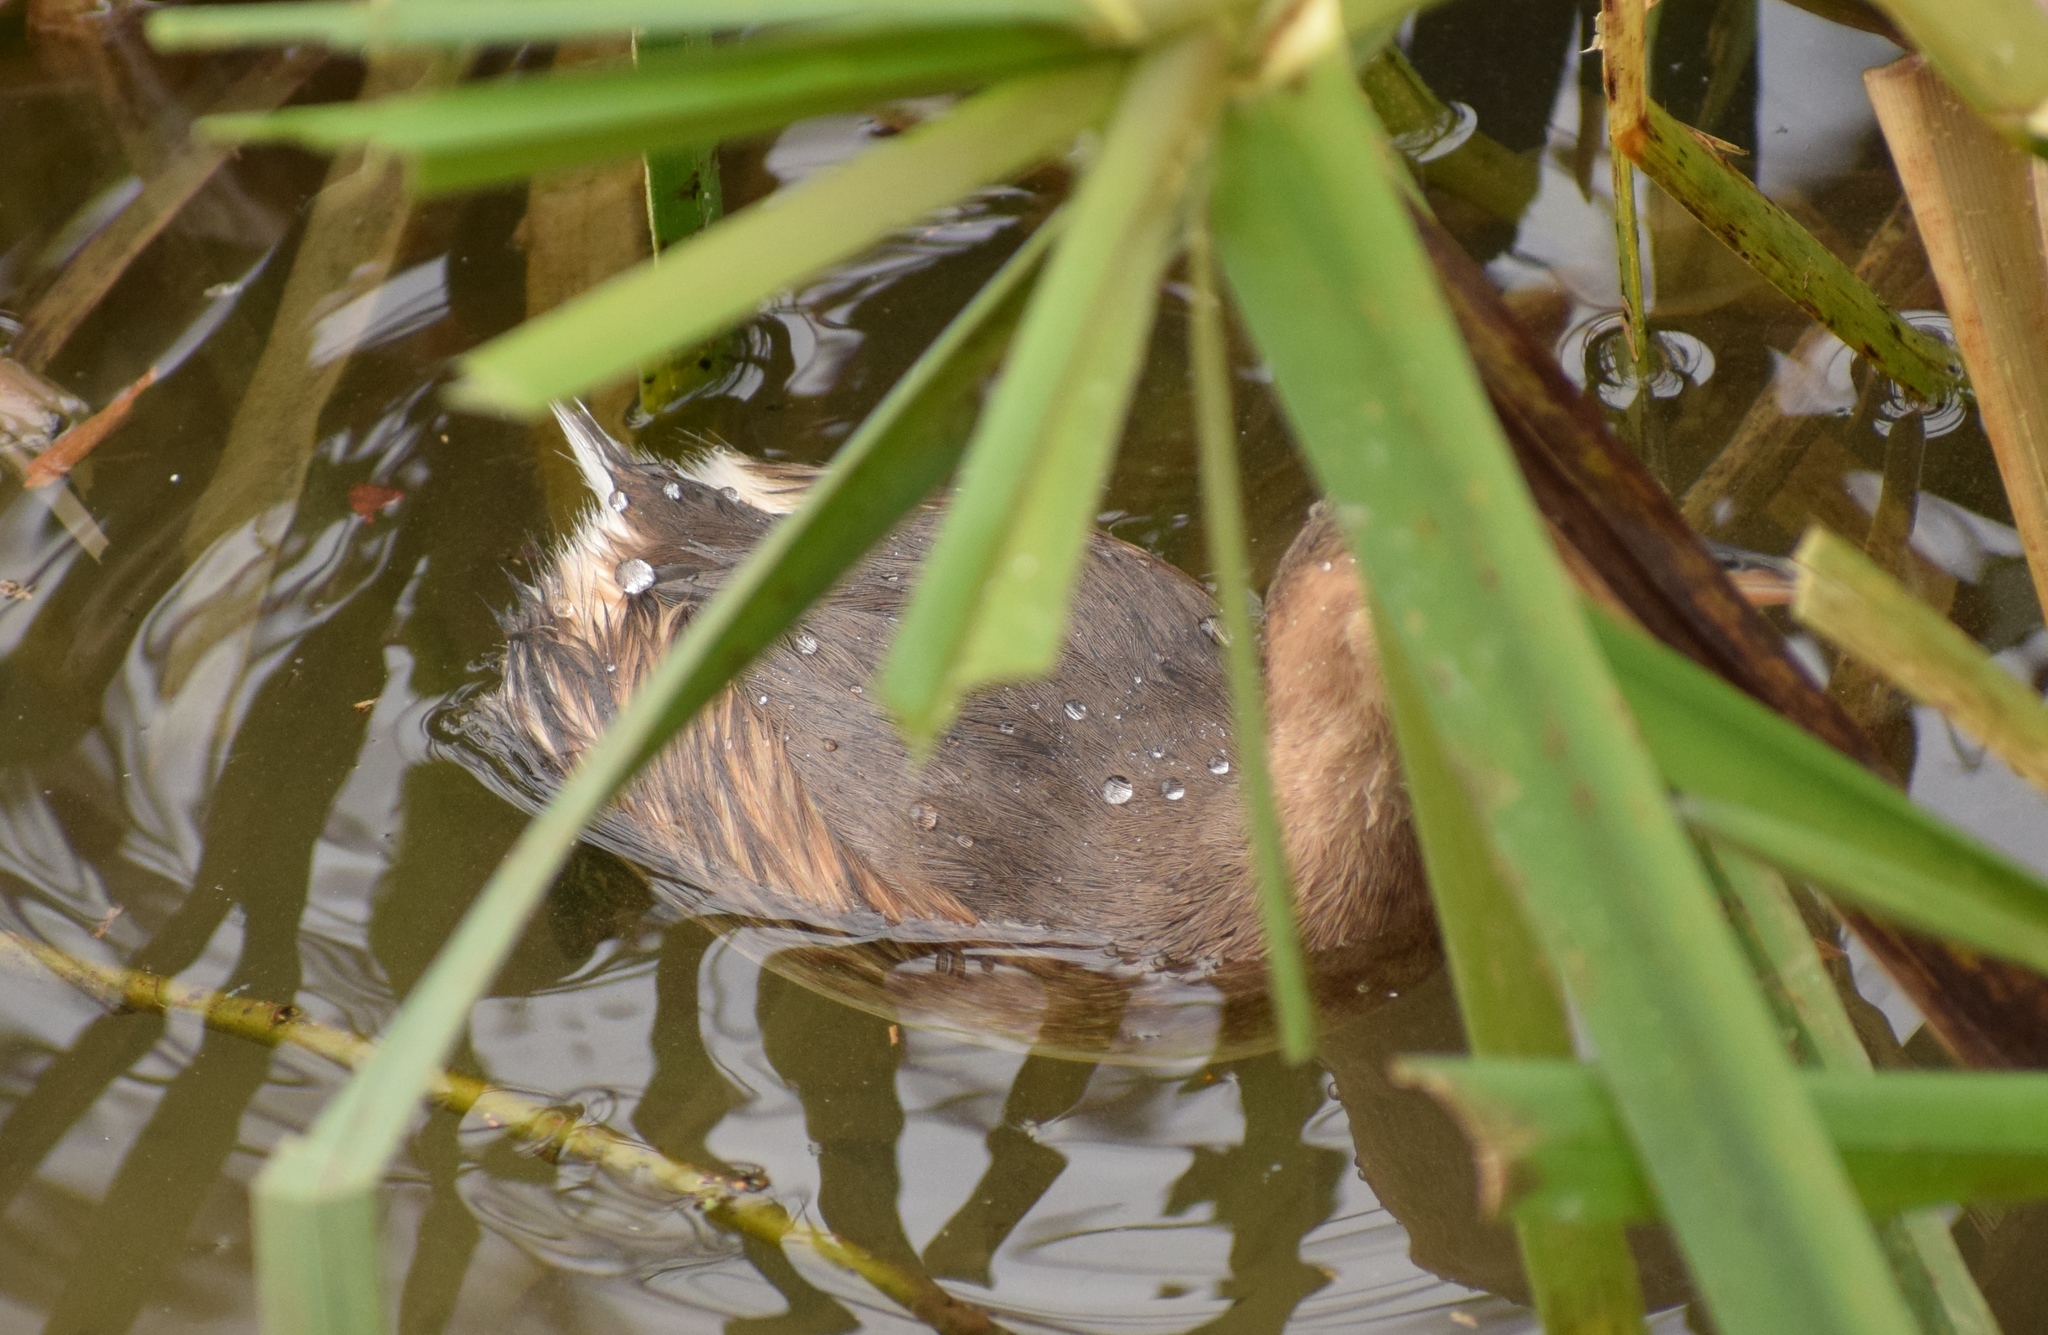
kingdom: Animalia
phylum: Chordata
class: Aves
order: Podicipediformes
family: Podicipedidae
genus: Tachybaptus
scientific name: Tachybaptus ruficollis
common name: Little grebe
